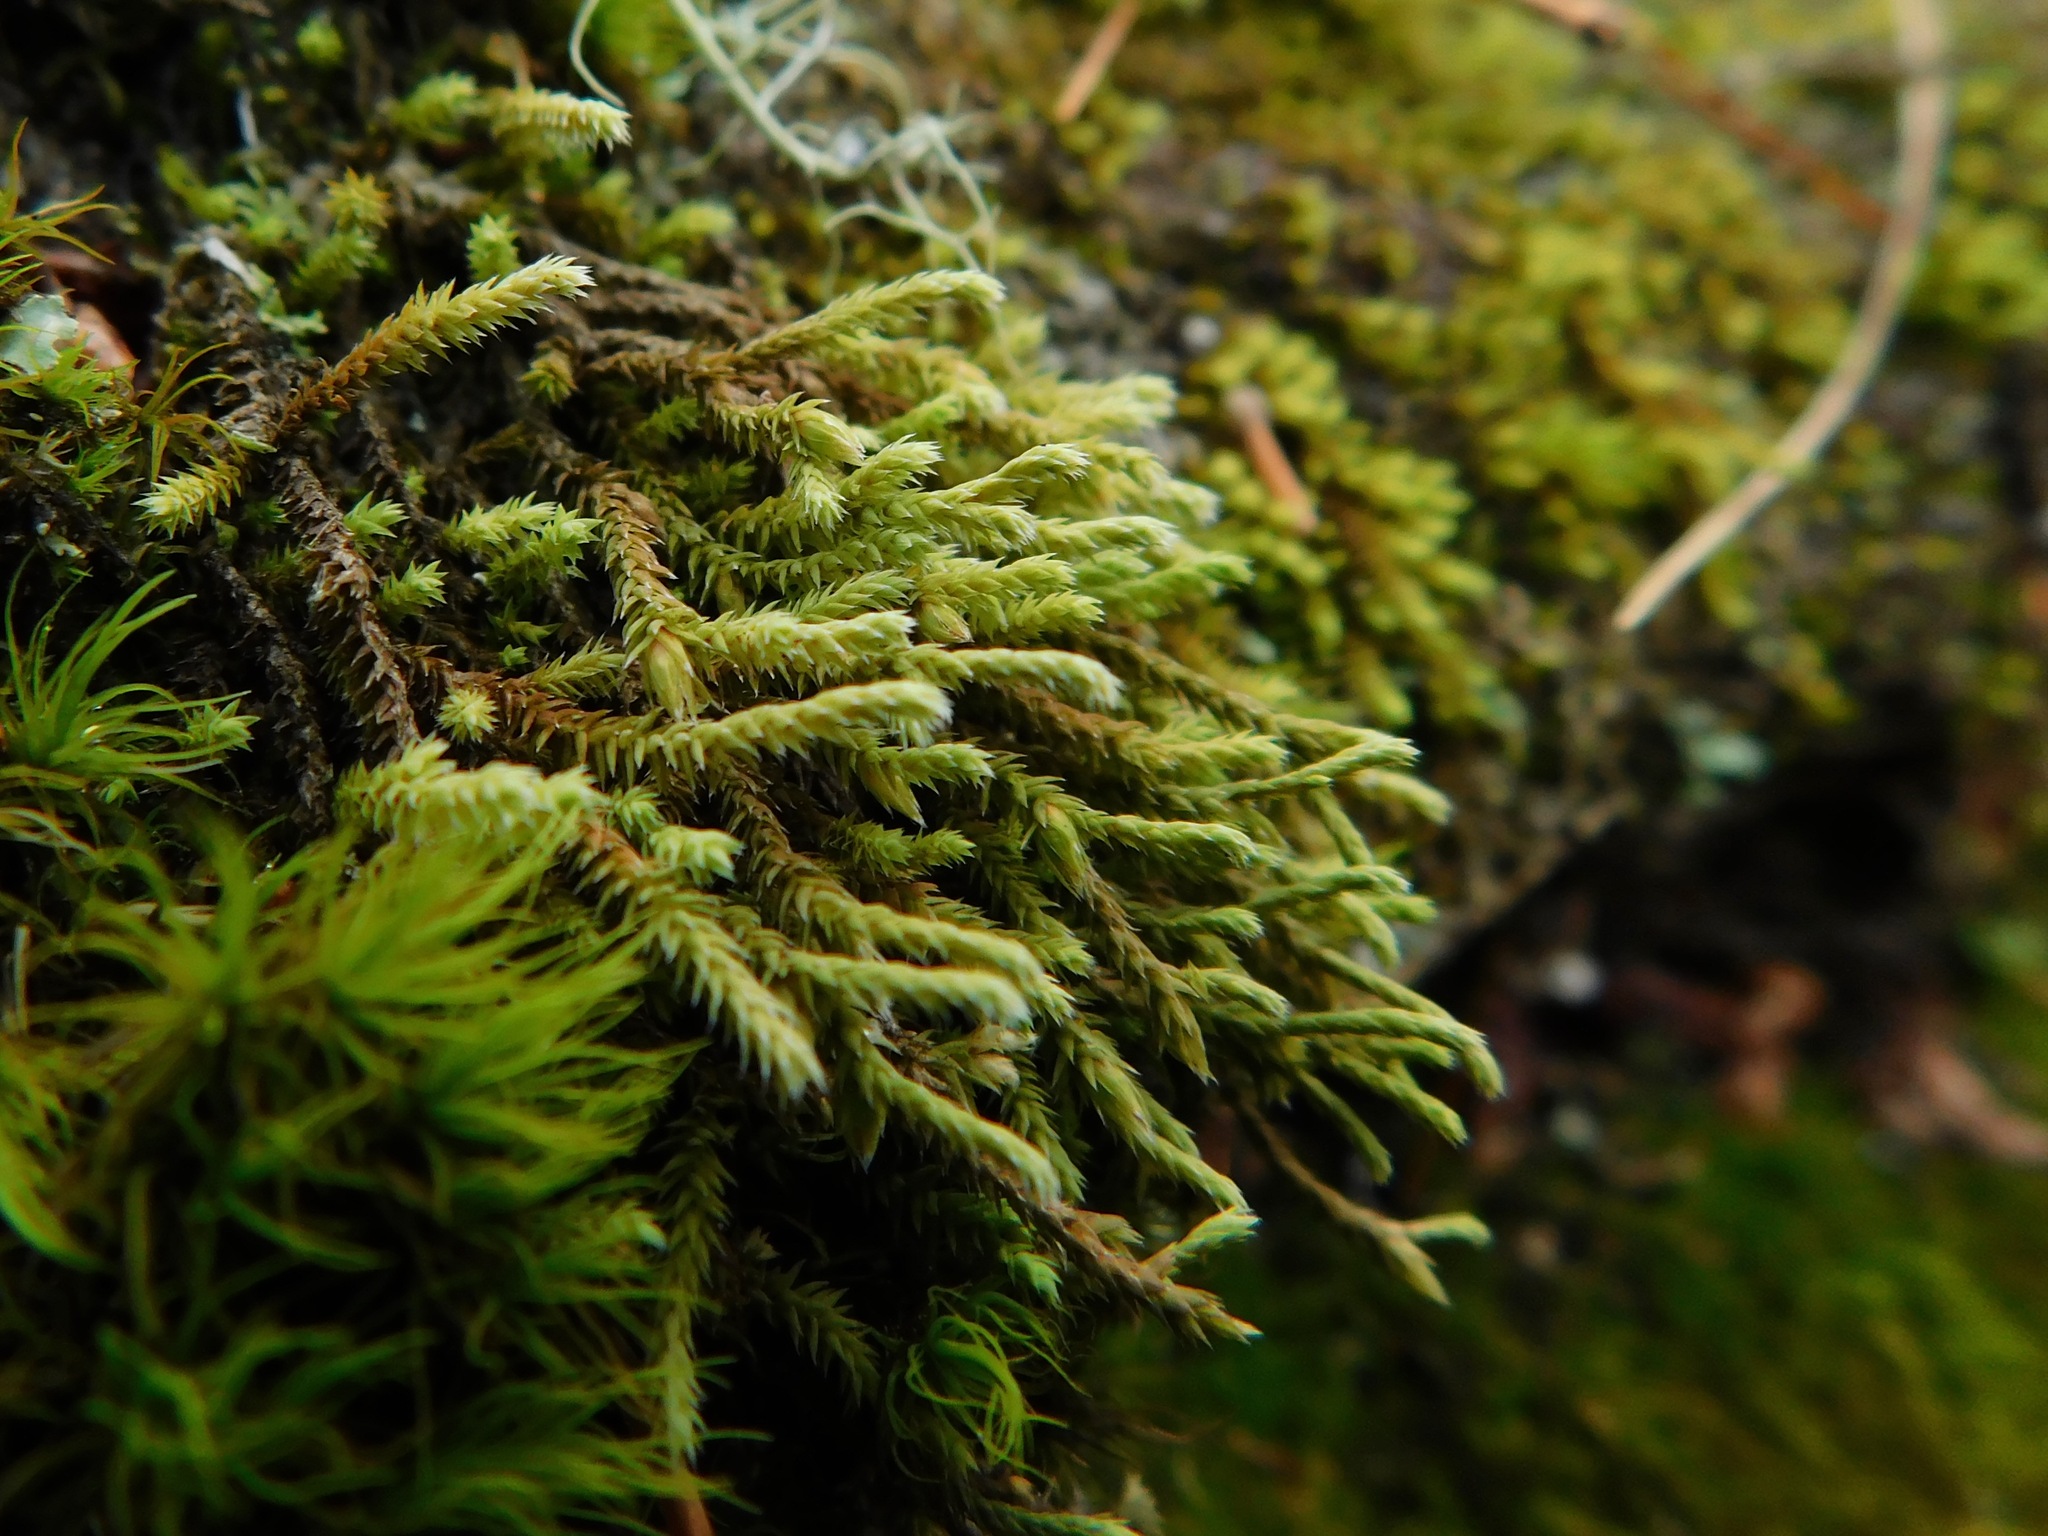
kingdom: Plantae
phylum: Bryophyta
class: Bryopsida
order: Hedwigiales
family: Hedwigiaceae
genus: Hedwigia
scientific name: Hedwigia ciliata
